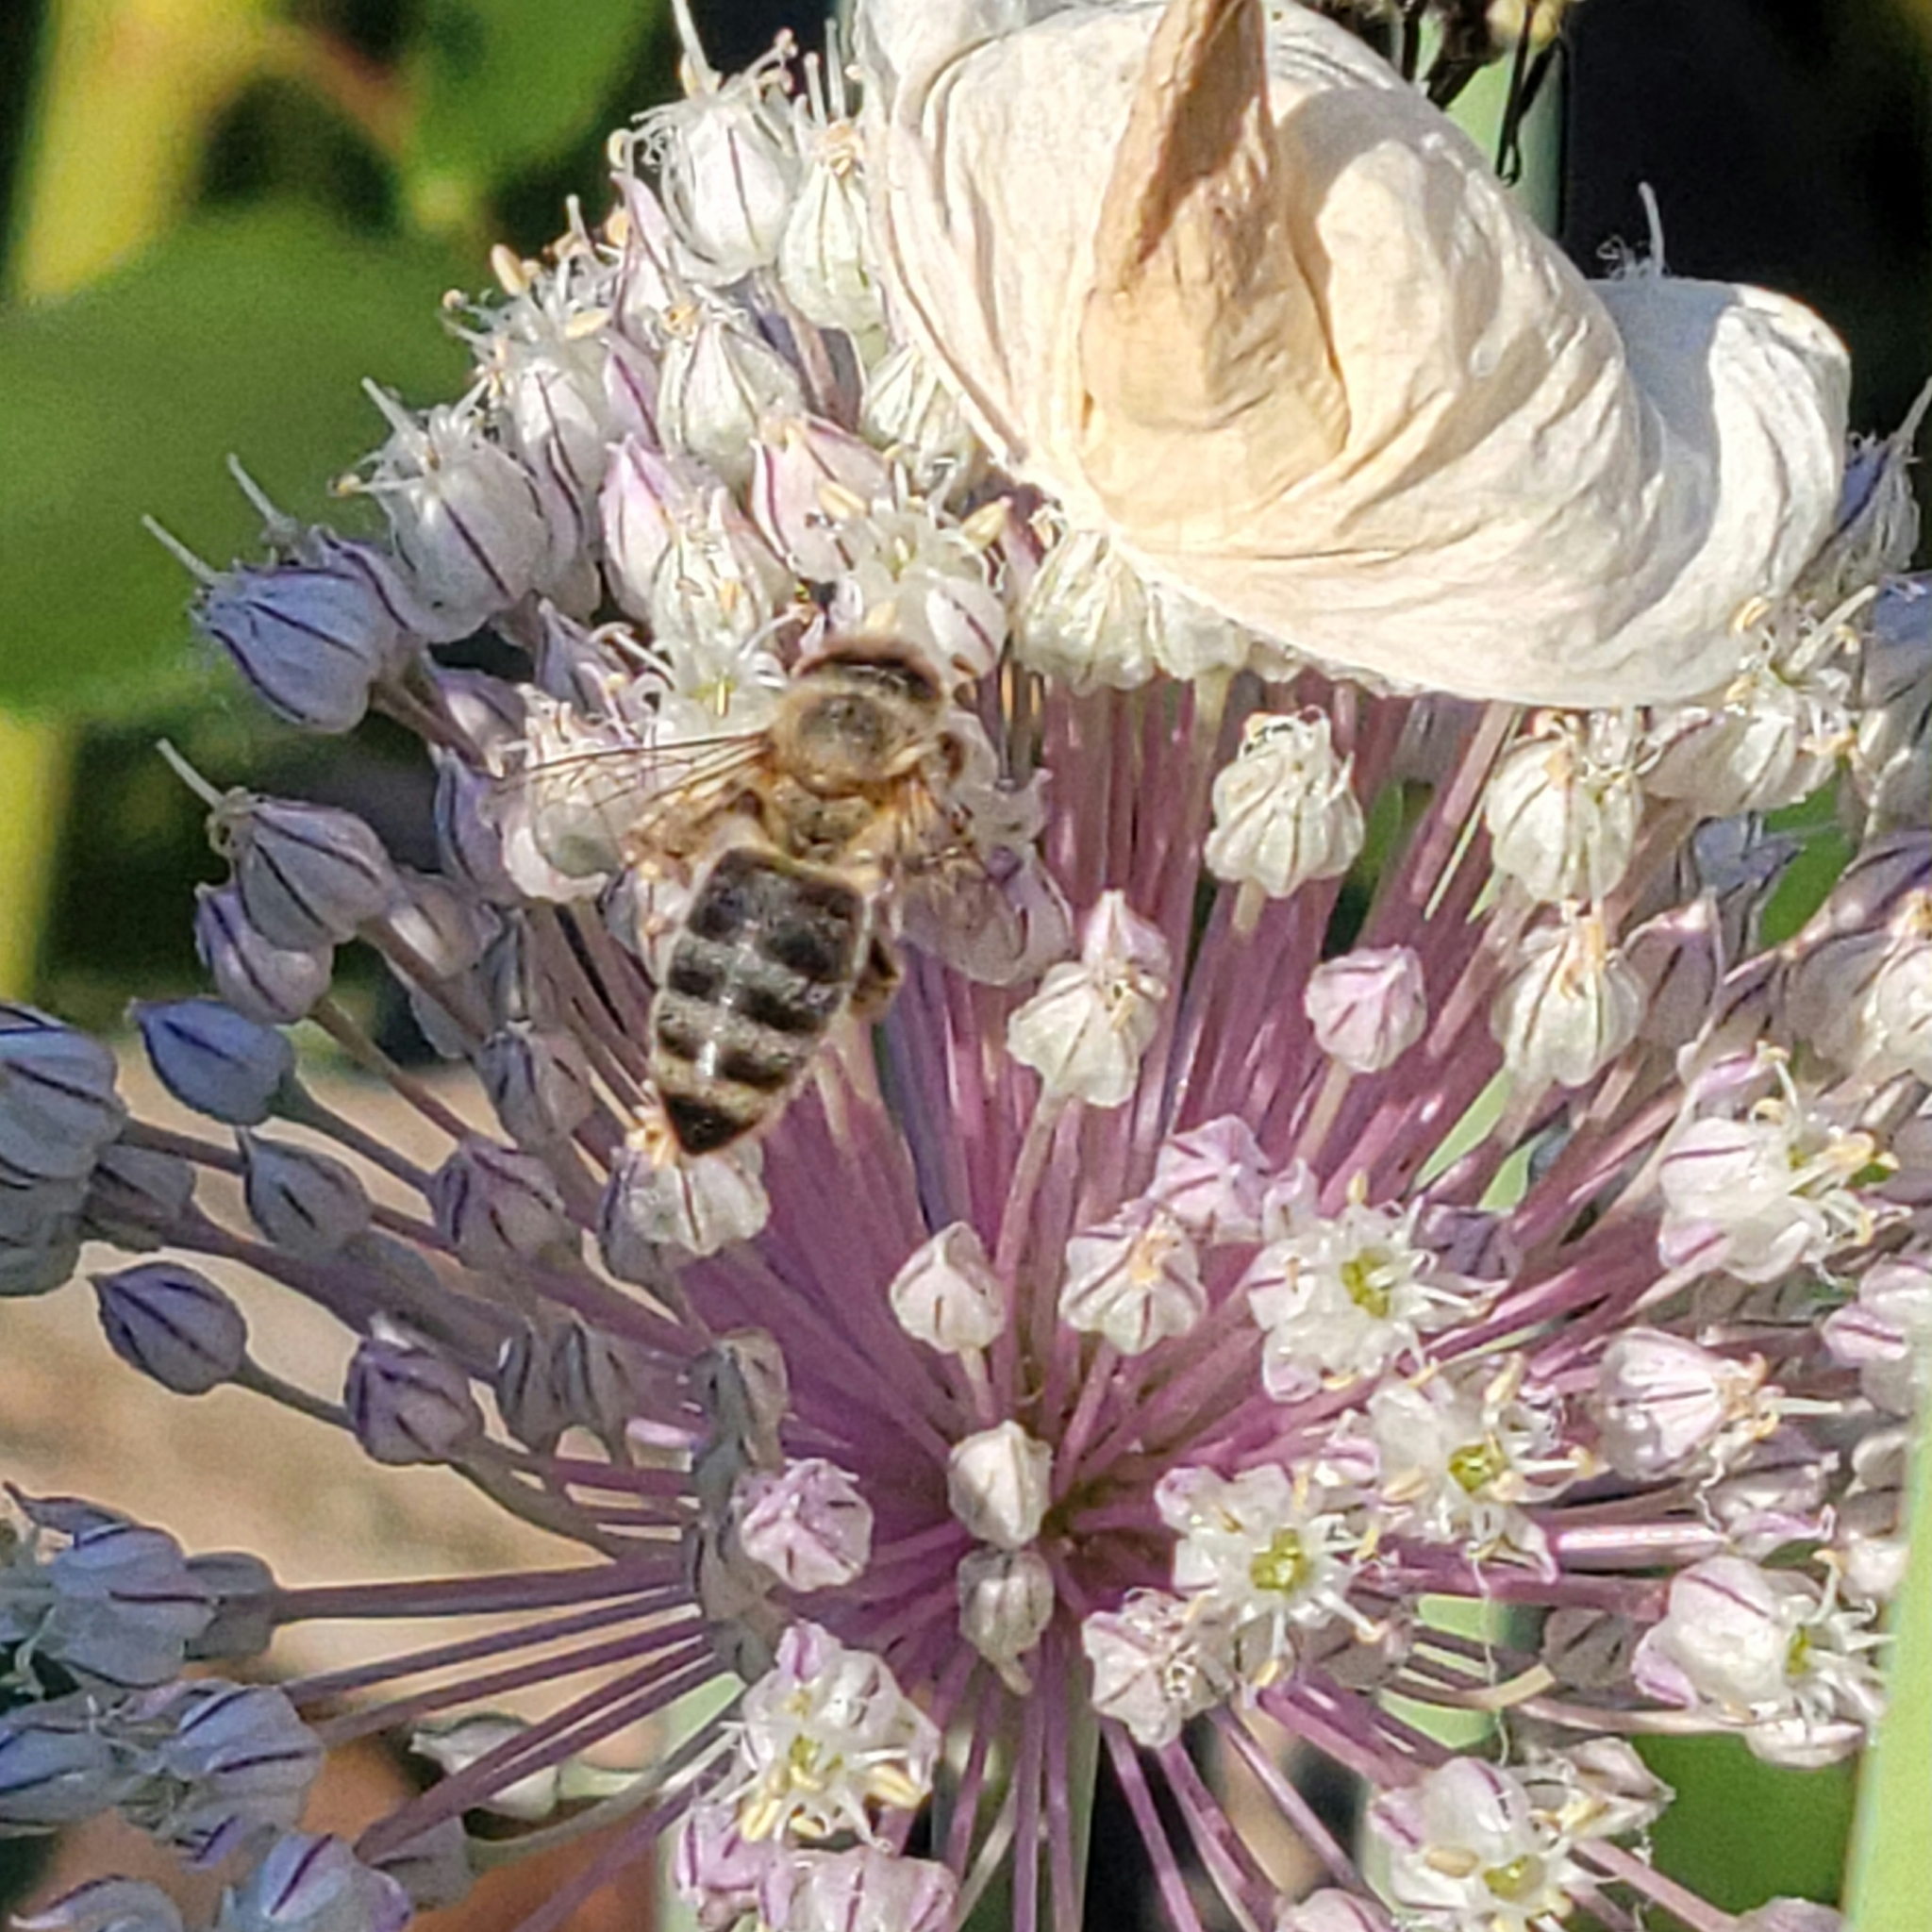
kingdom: Animalia
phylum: Arthropoda
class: Insecta
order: Hymenoptera
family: Apidae
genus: Apis
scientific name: Apis mellifera
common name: Honey bee
